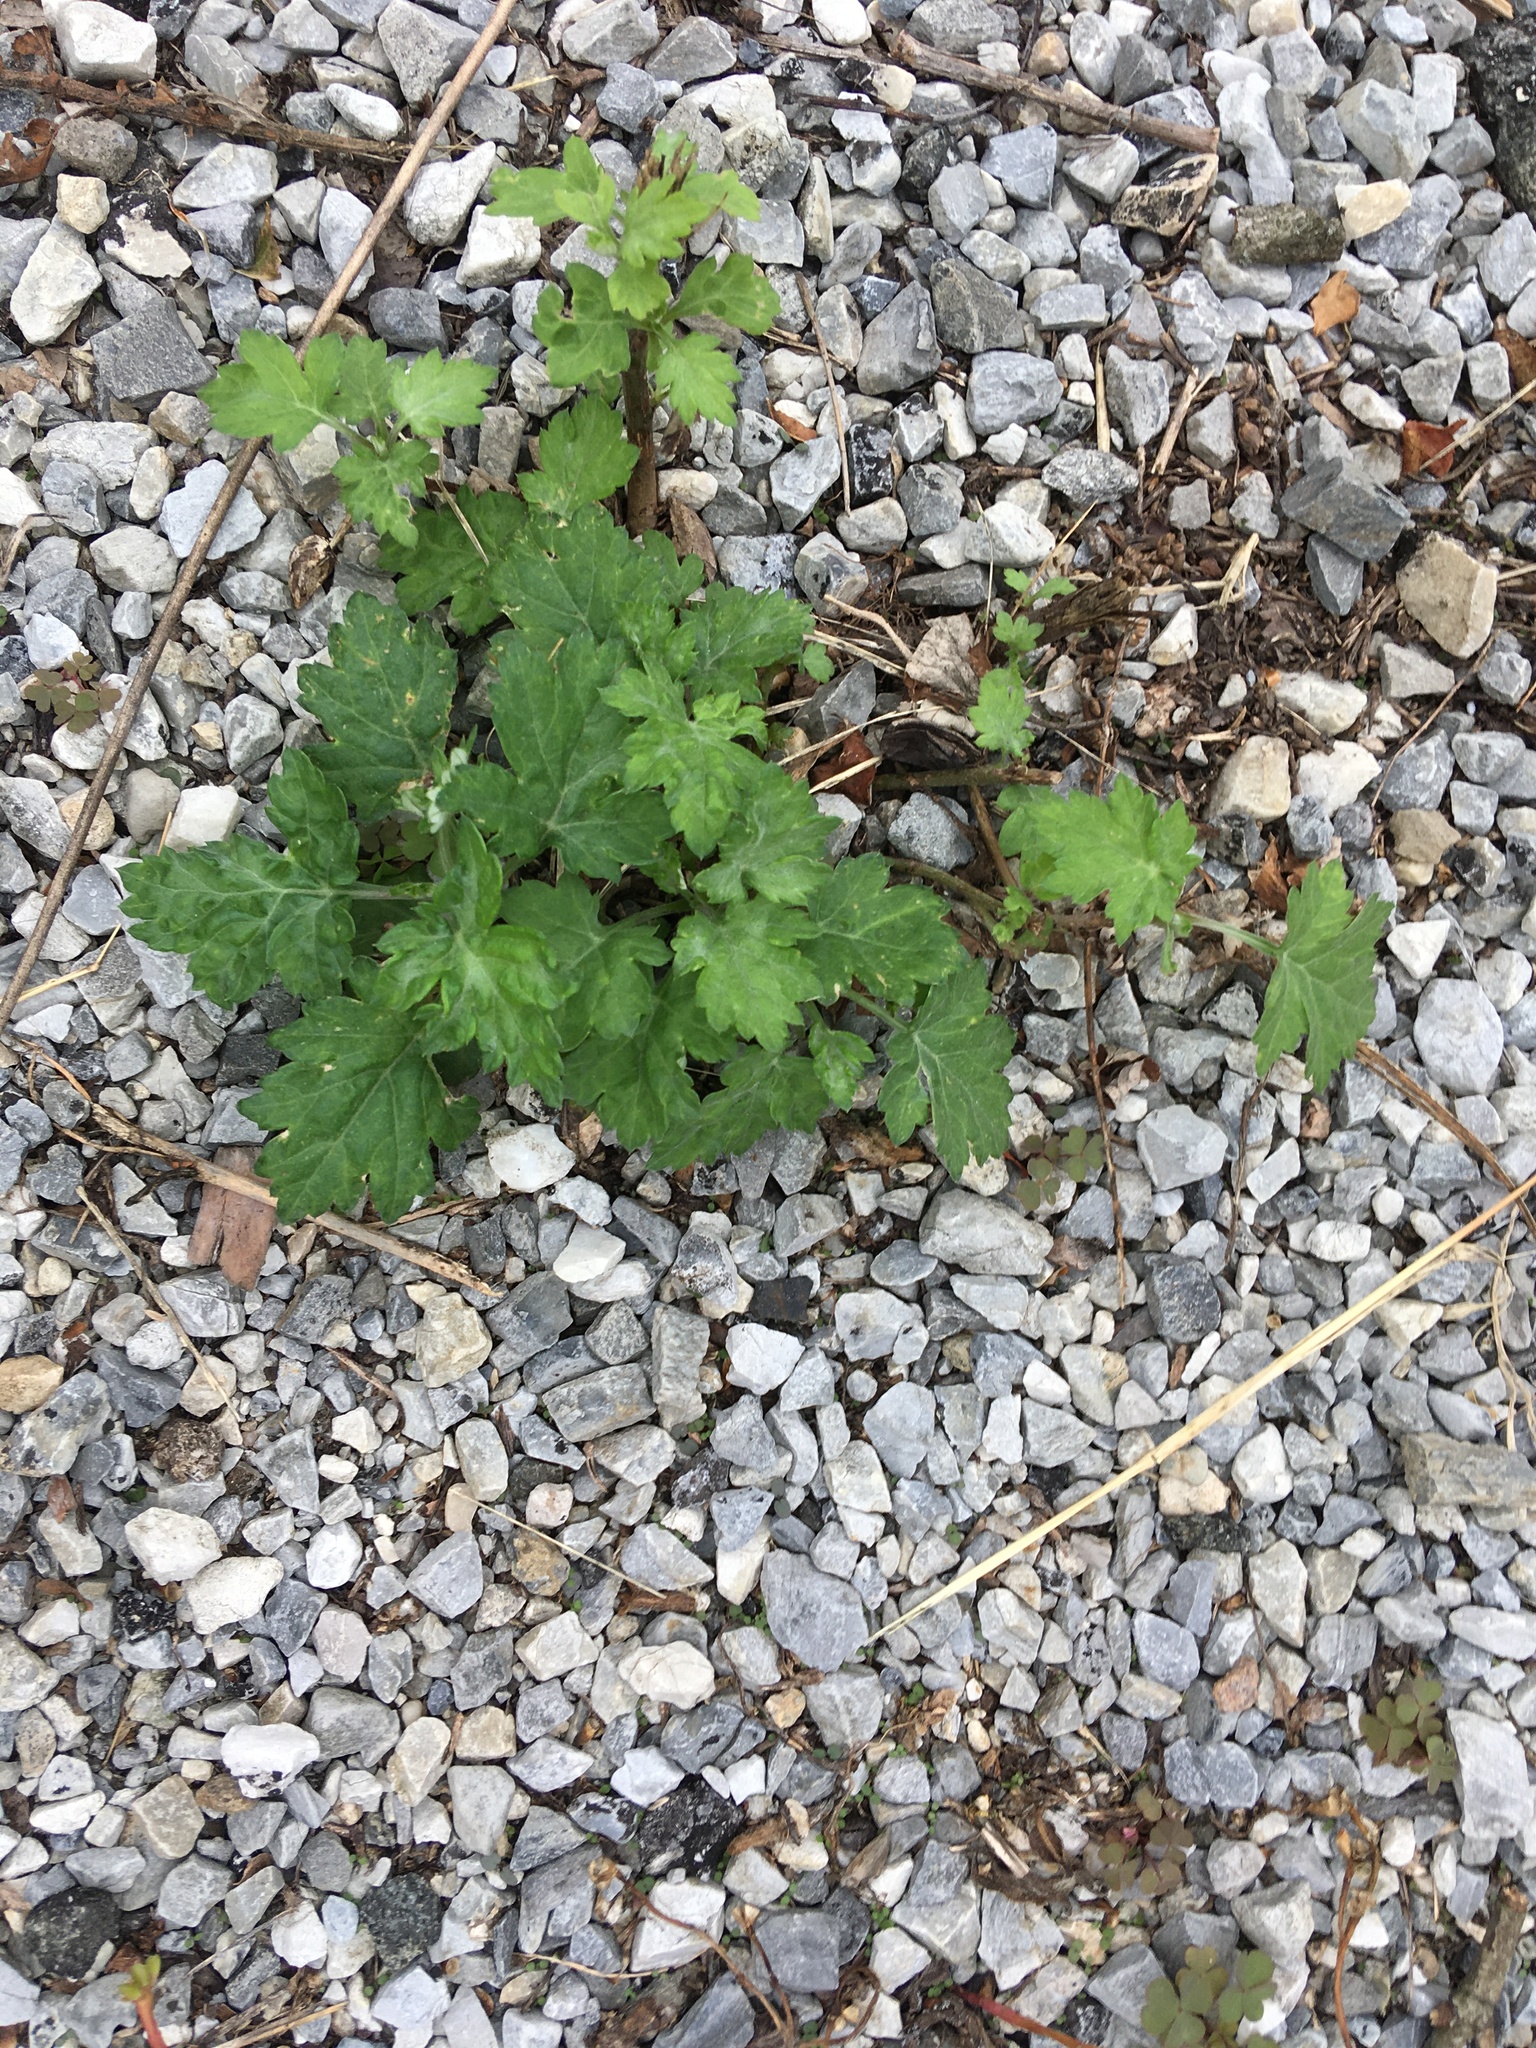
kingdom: Plantae
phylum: Tracheophyta
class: Magnoliopsida
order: Asterales
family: Asteraceae
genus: Artemisia
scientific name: Artemisia vulgaris
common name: Mugwort
